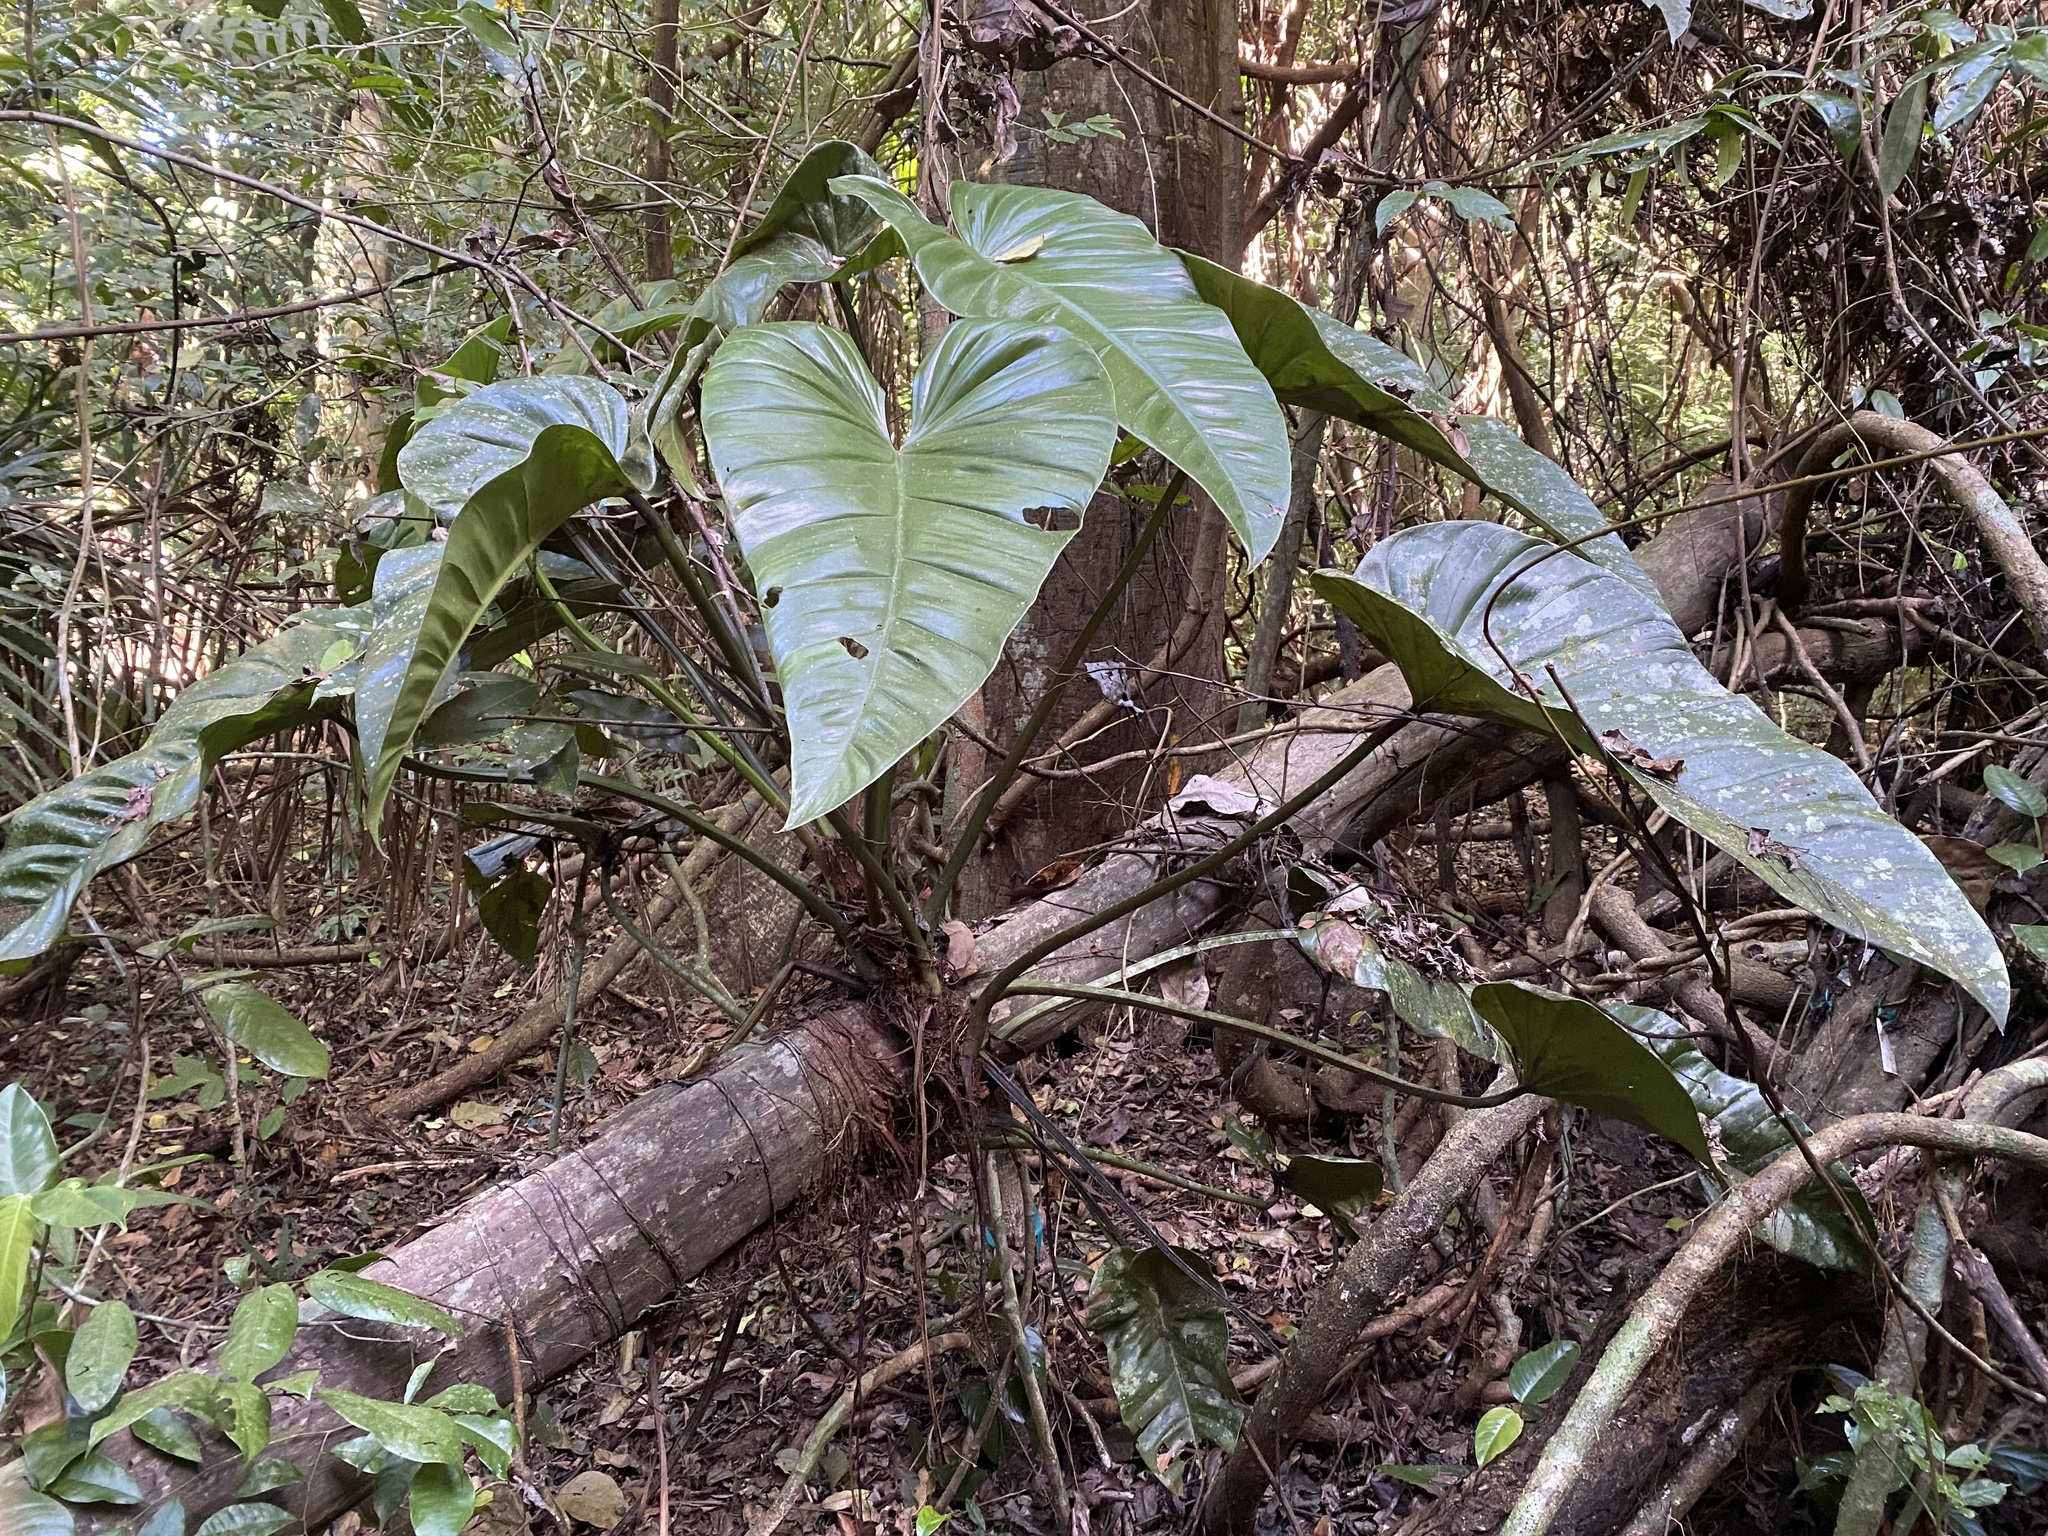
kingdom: Plantae
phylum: Tracheophyta
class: Liliopsida
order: Alismatales
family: Araceae
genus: Philodendron
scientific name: Philodendron fragrantissimum
